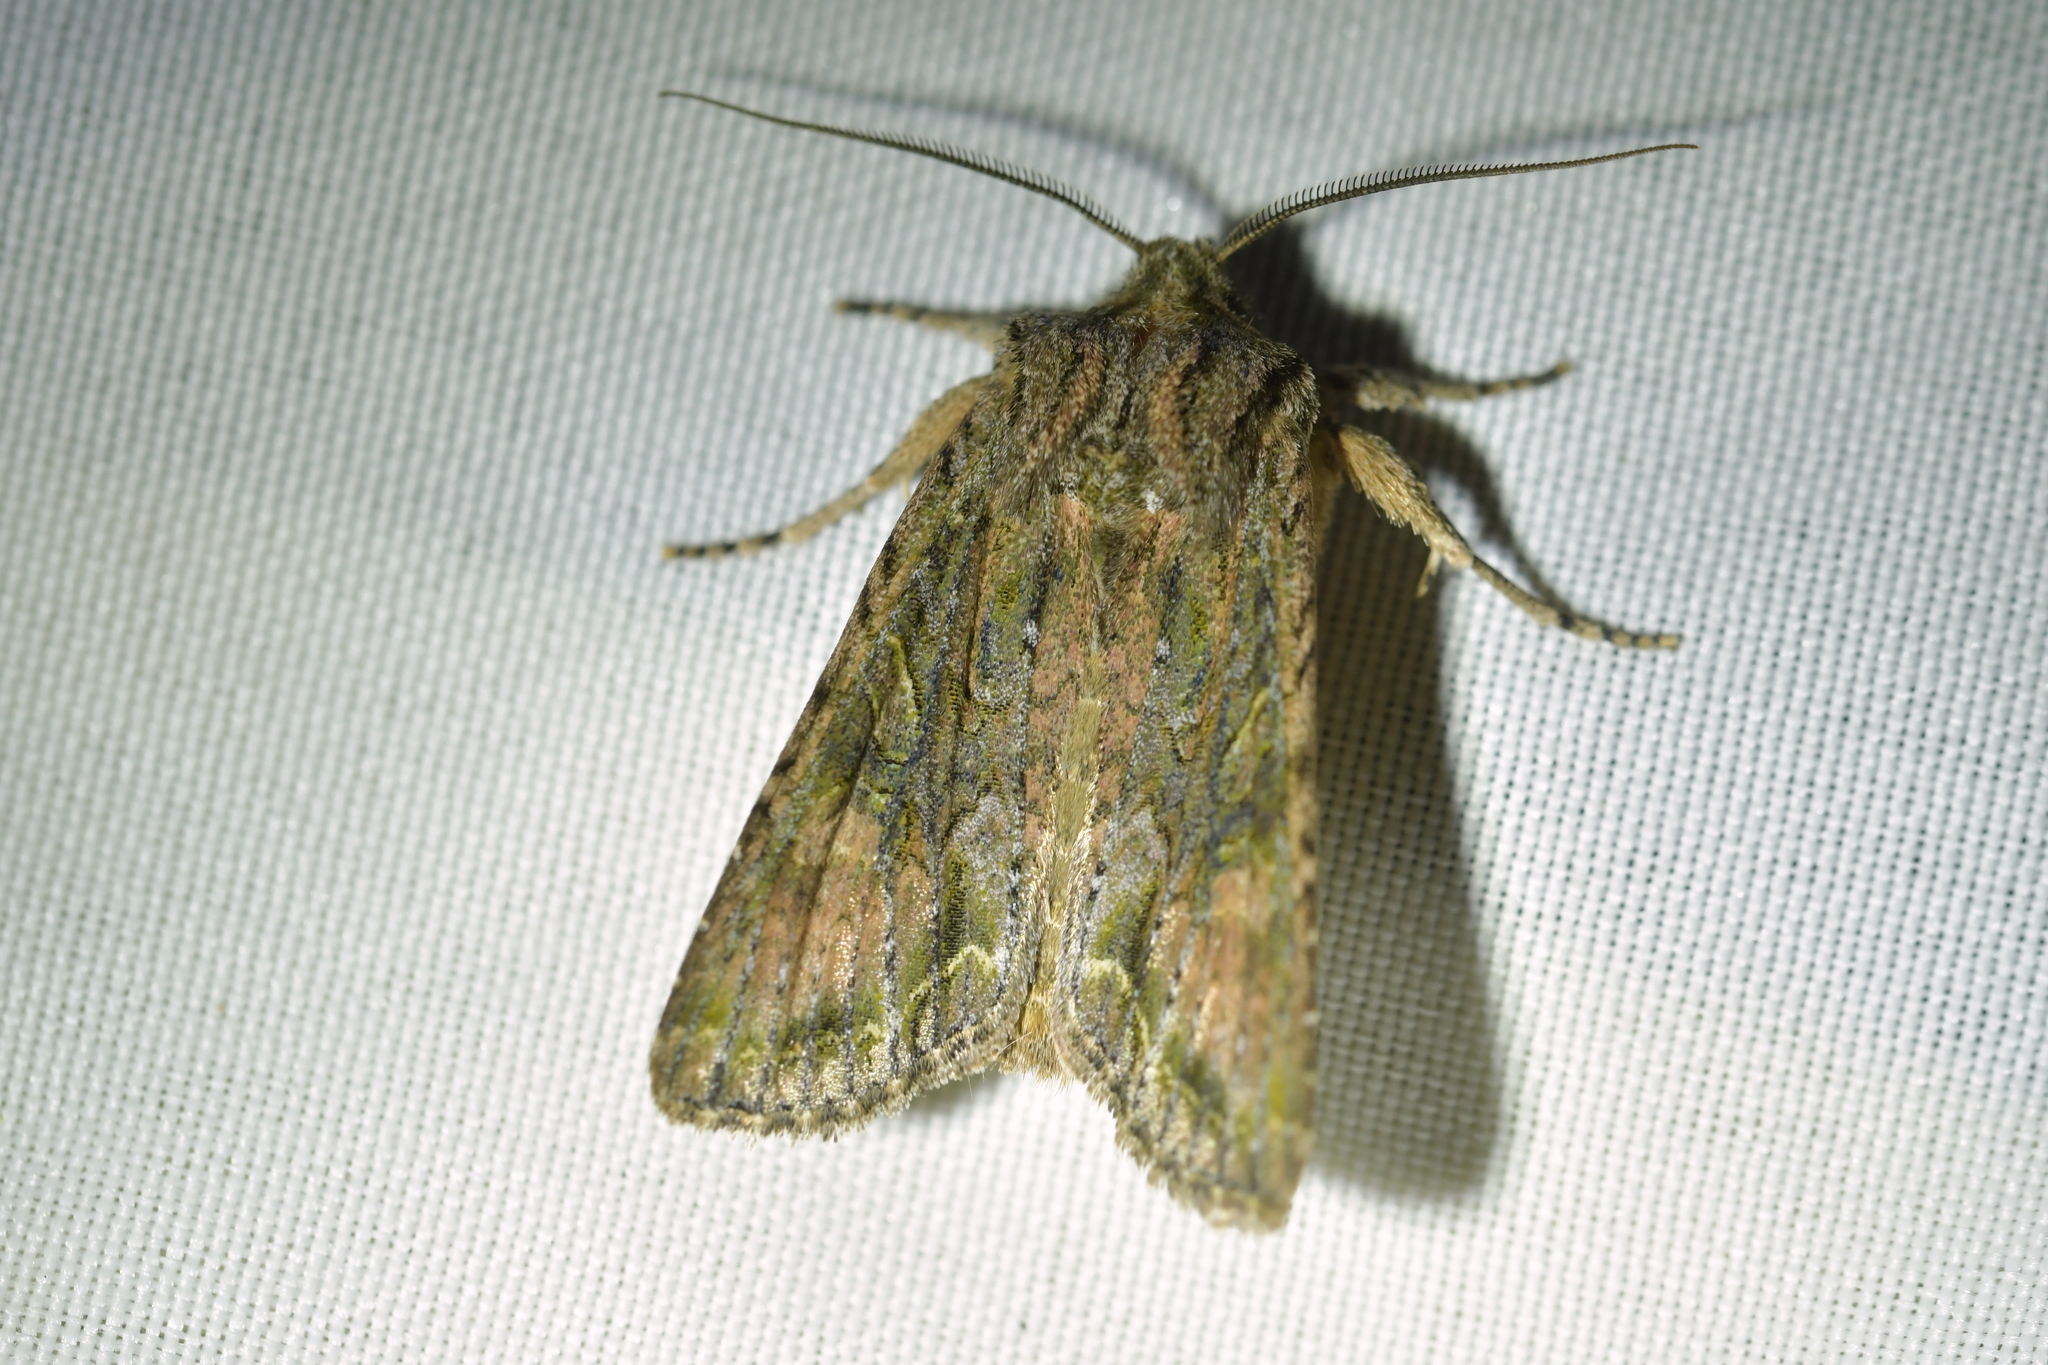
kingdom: Animalia
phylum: Arthropoda
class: Insecta
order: Lepidoptera
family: Noctuidae
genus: Ichneutica
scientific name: Ichneutica mutans
